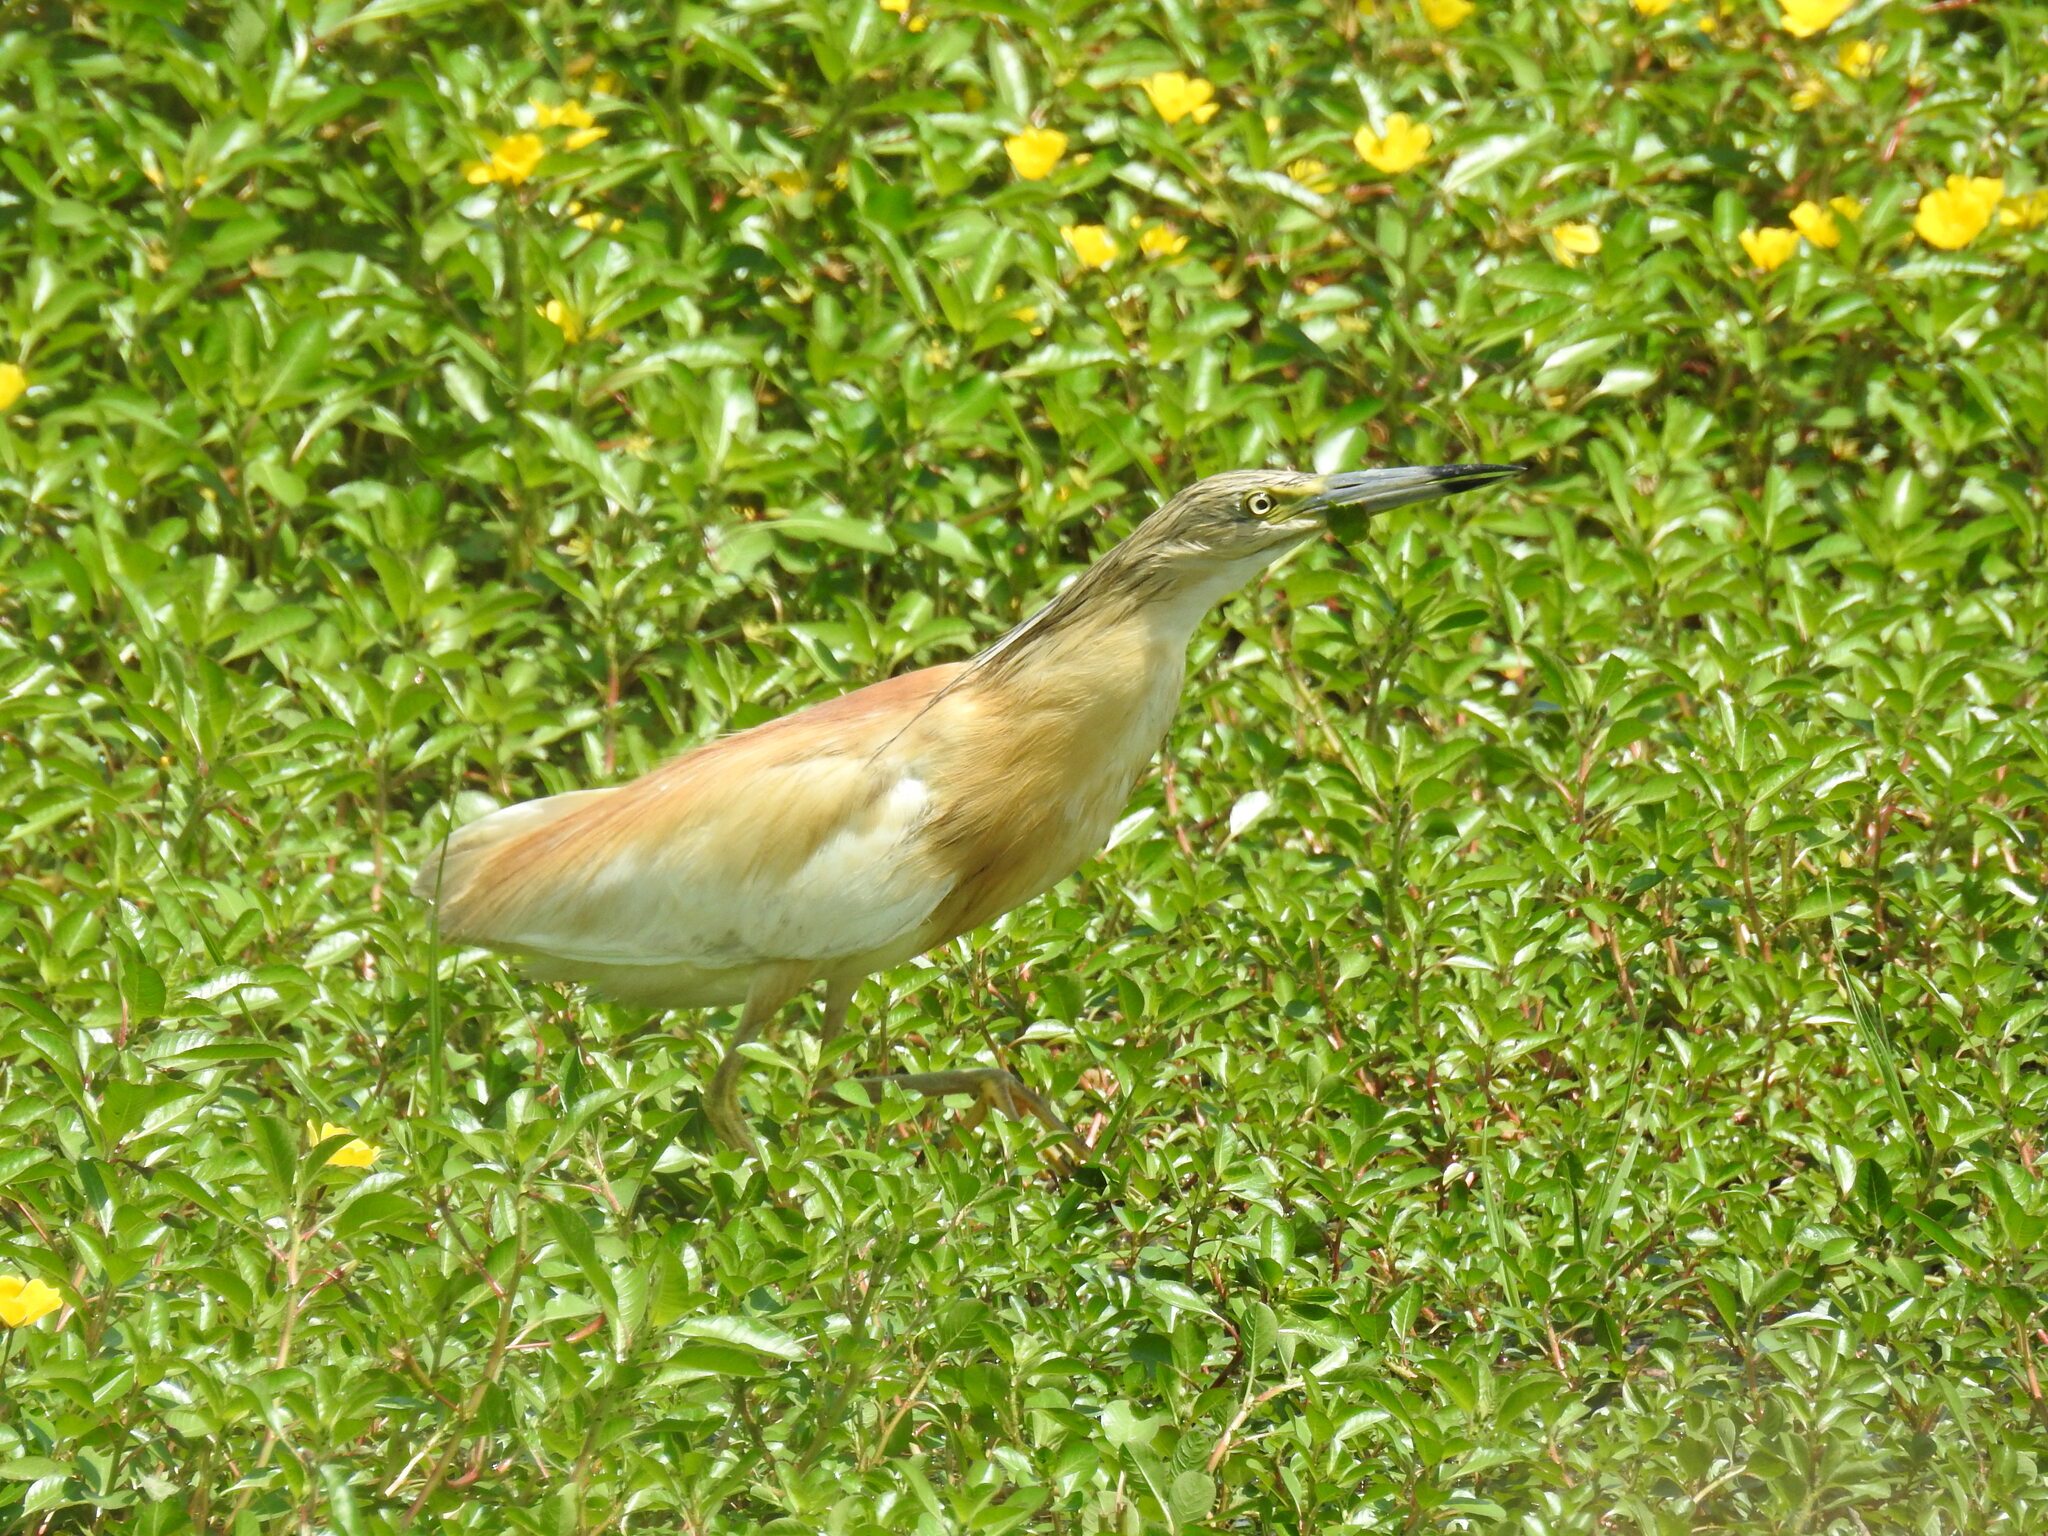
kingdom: Animalia
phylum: Chordata
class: Aves
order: Pelecaniformes
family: Ardeidae
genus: Ardeola
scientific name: Ardeola ralloides
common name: Squacco heron
